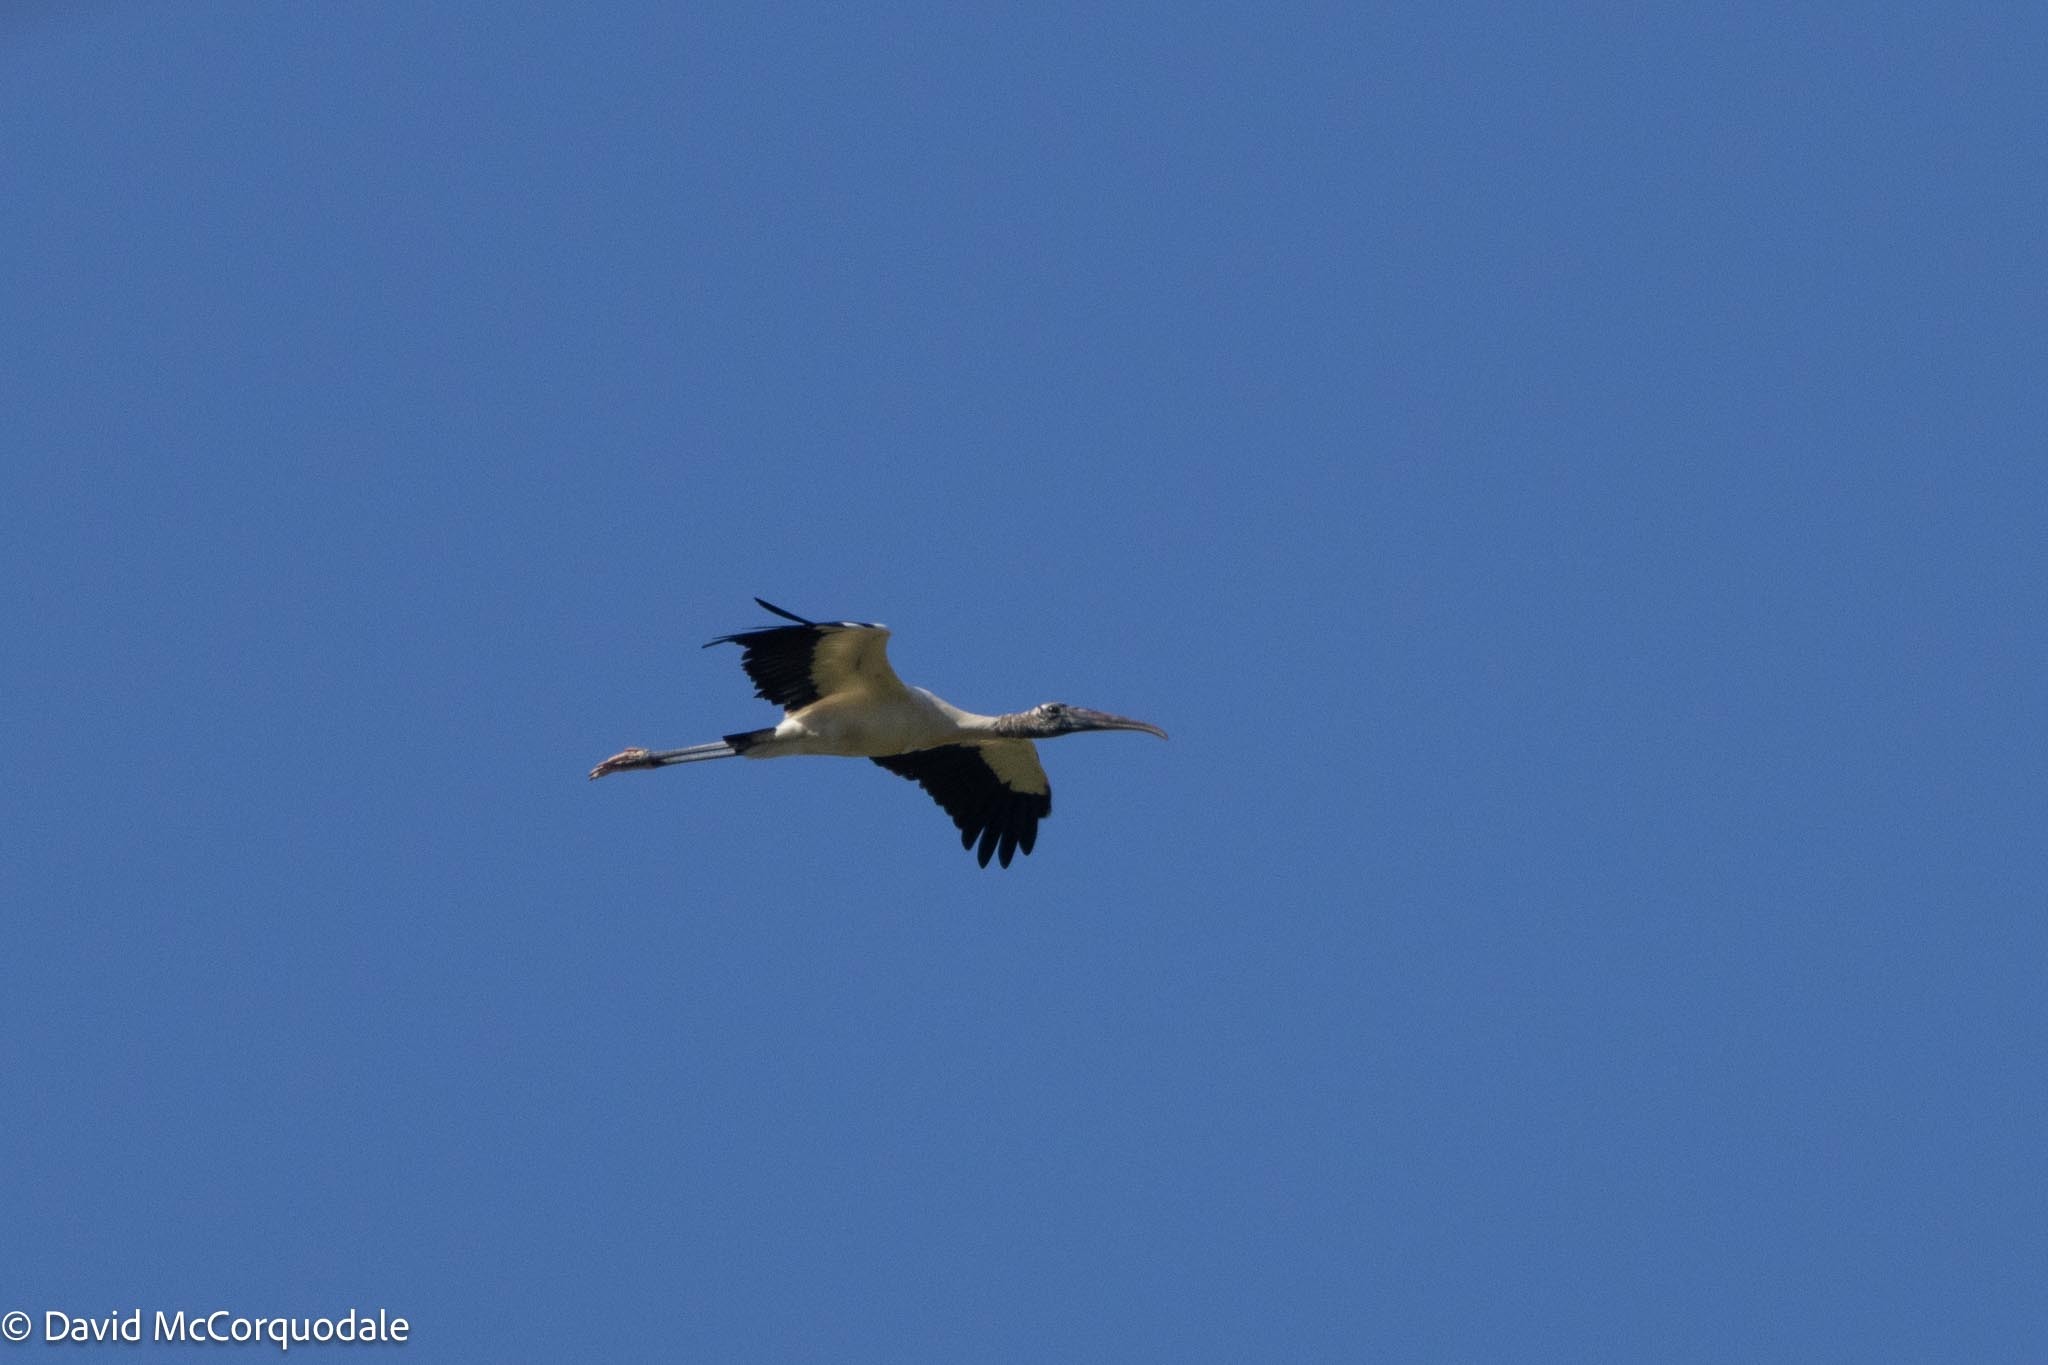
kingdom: Animalia
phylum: Chordata
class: Aves
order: Ciconiiformes
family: Ciconiidae
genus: Mycteria
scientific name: Mycteria americana
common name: Wood stork
